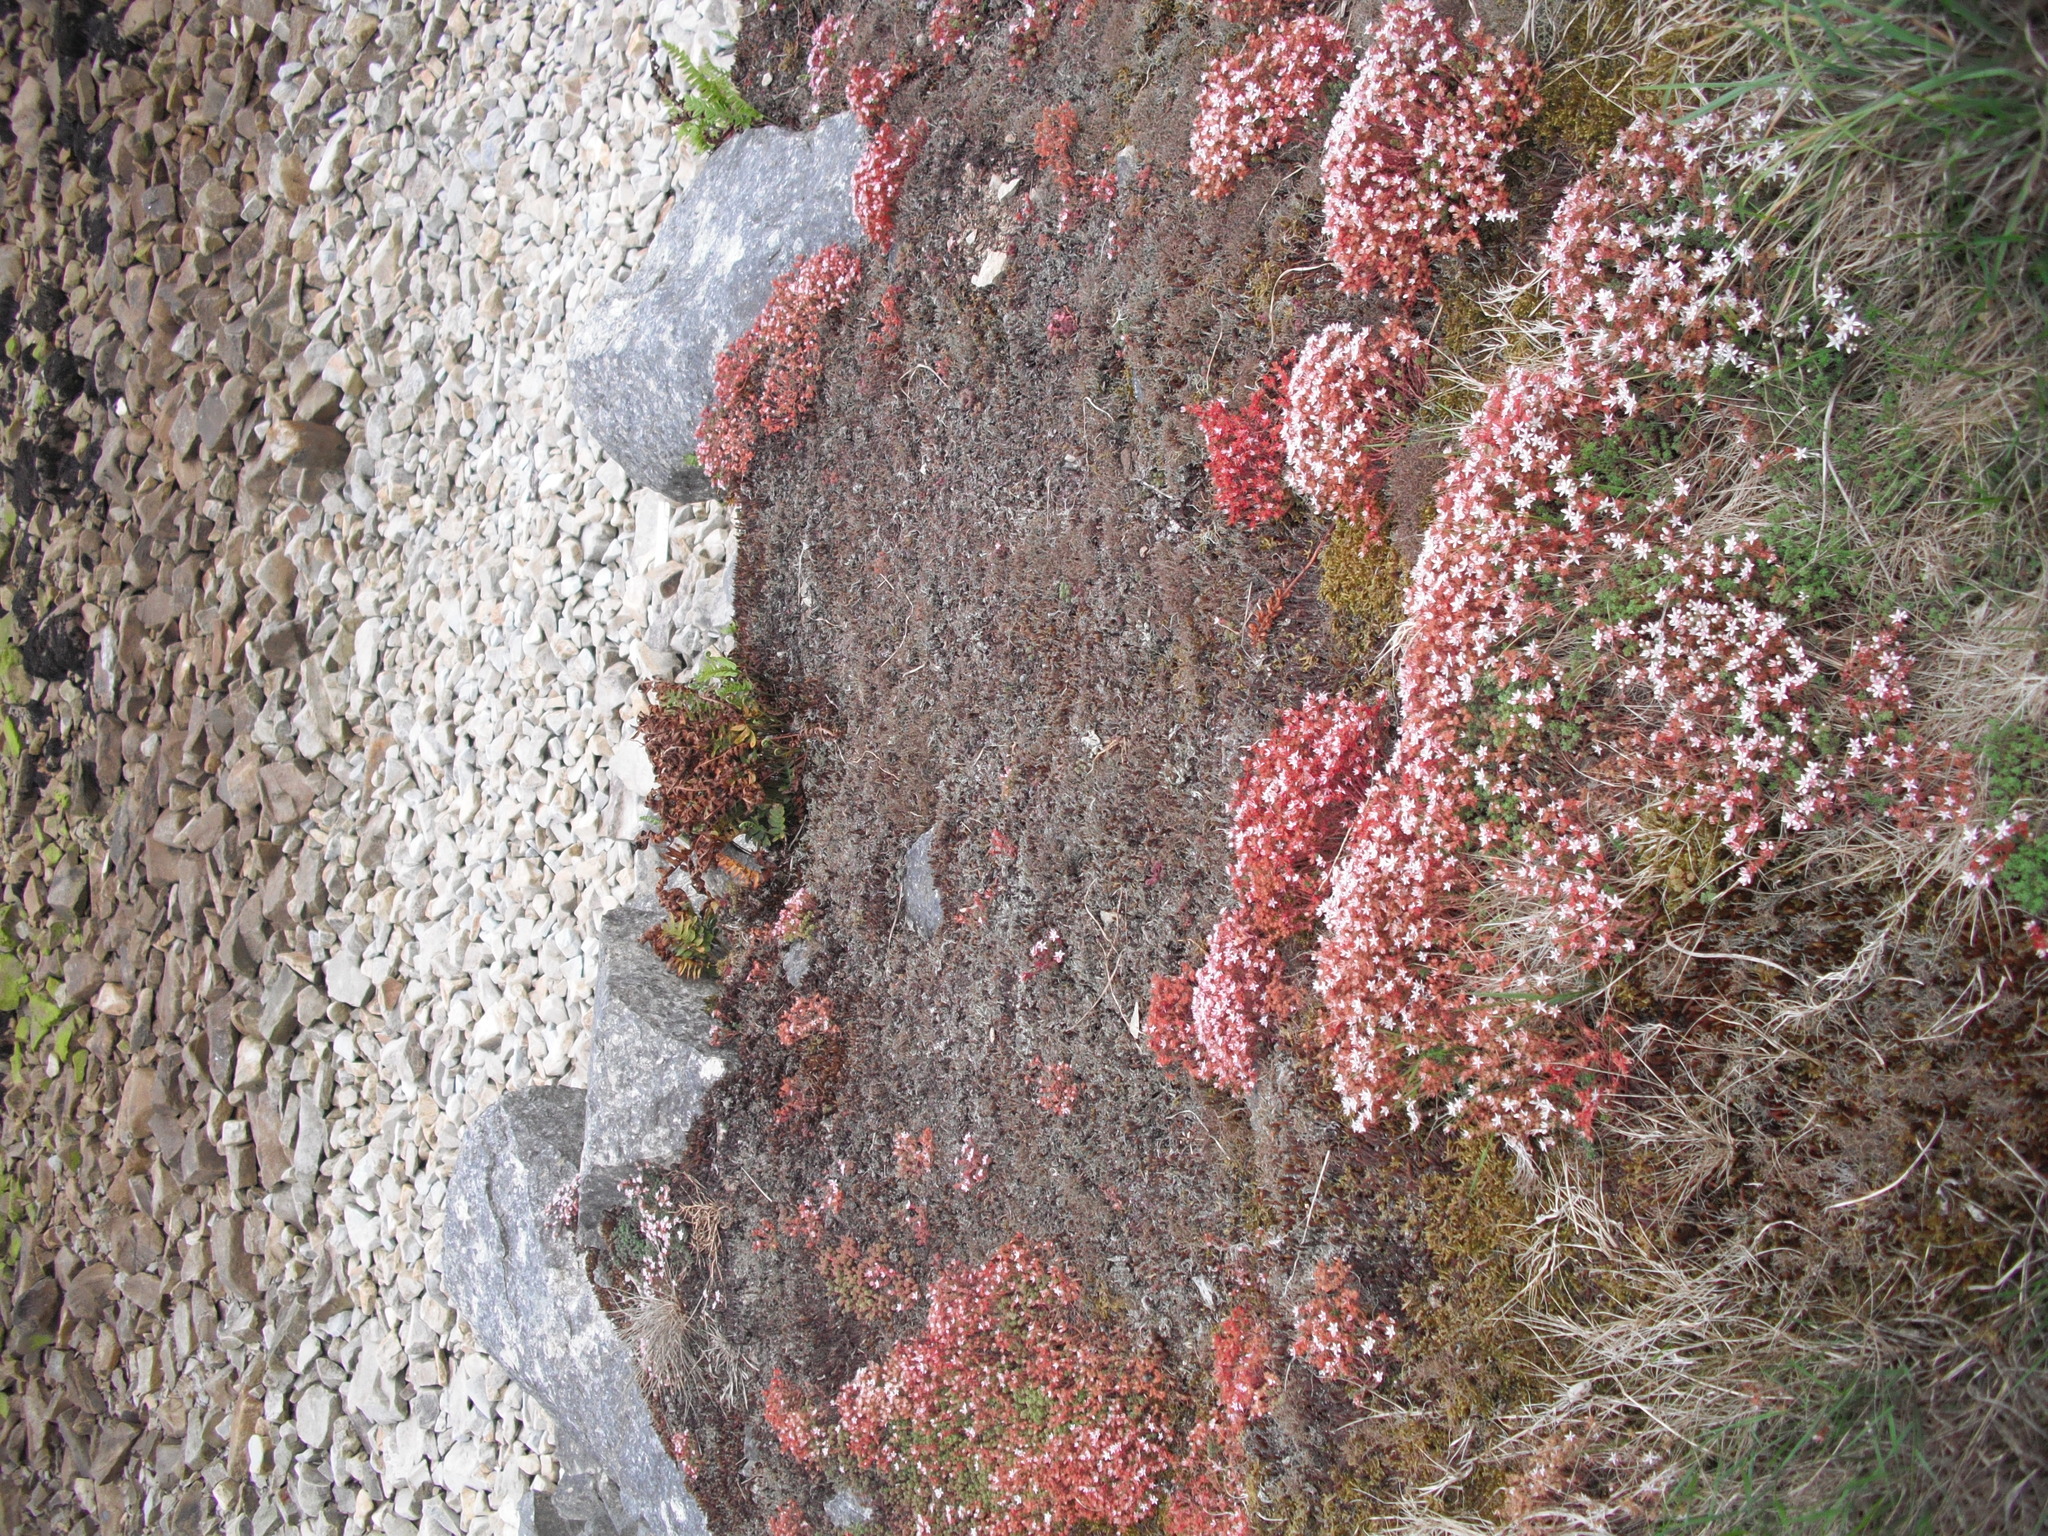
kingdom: Plantae
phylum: Tracheophyta
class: Magnoliopsida
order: Saxifragales
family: Crassulaceae
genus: Sedum
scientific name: Sedum anglicum
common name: English stonecrop
